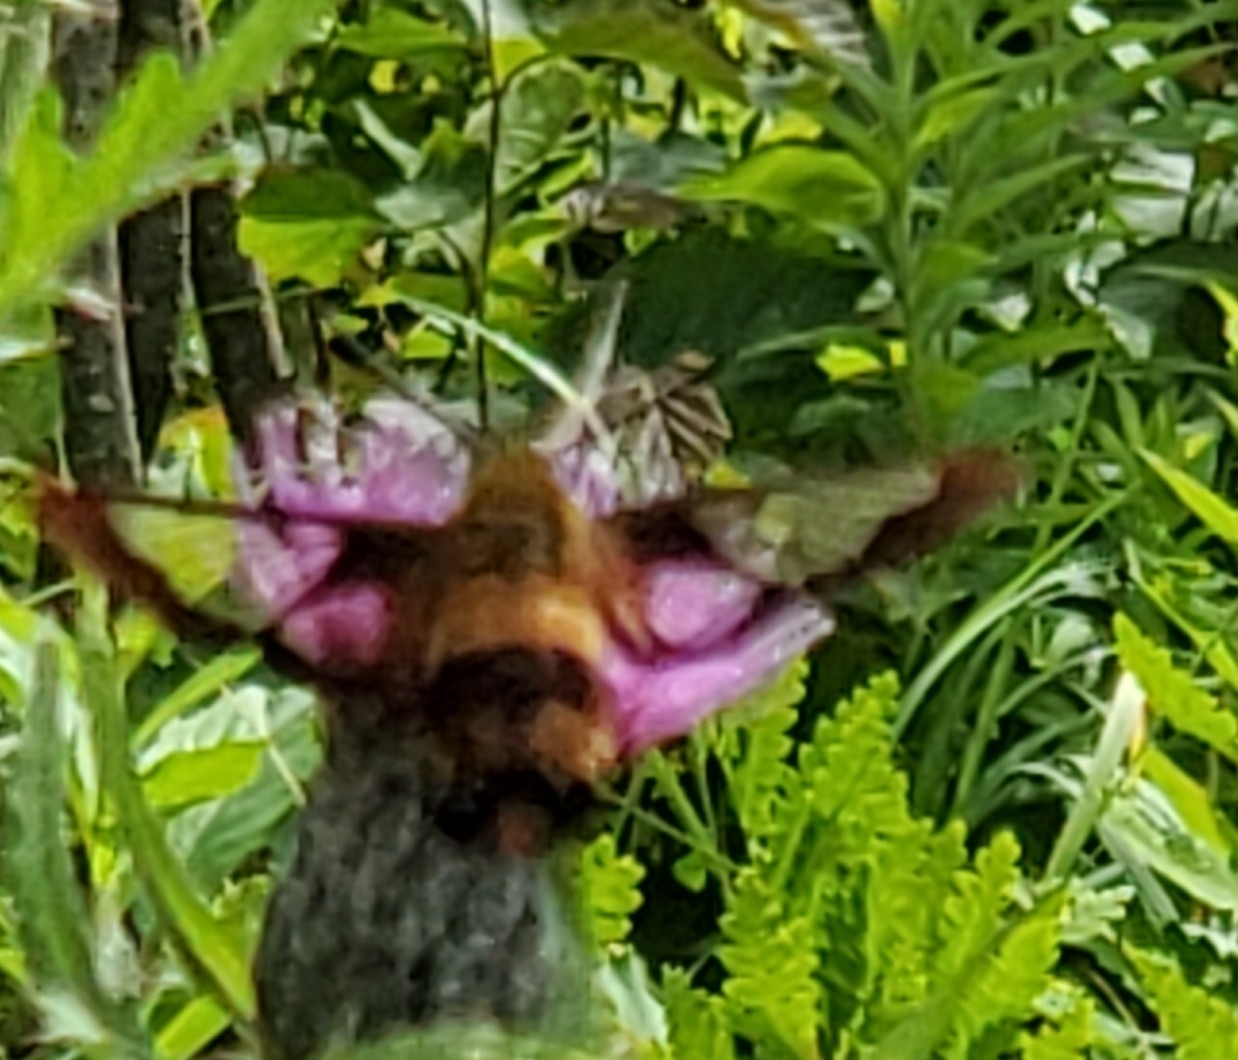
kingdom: Animalia
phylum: Arthropoda
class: Insecta
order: Lepidoptera
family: Sphingidae
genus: Hemaris
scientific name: Hemaris thysbe
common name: Common clear-wing
